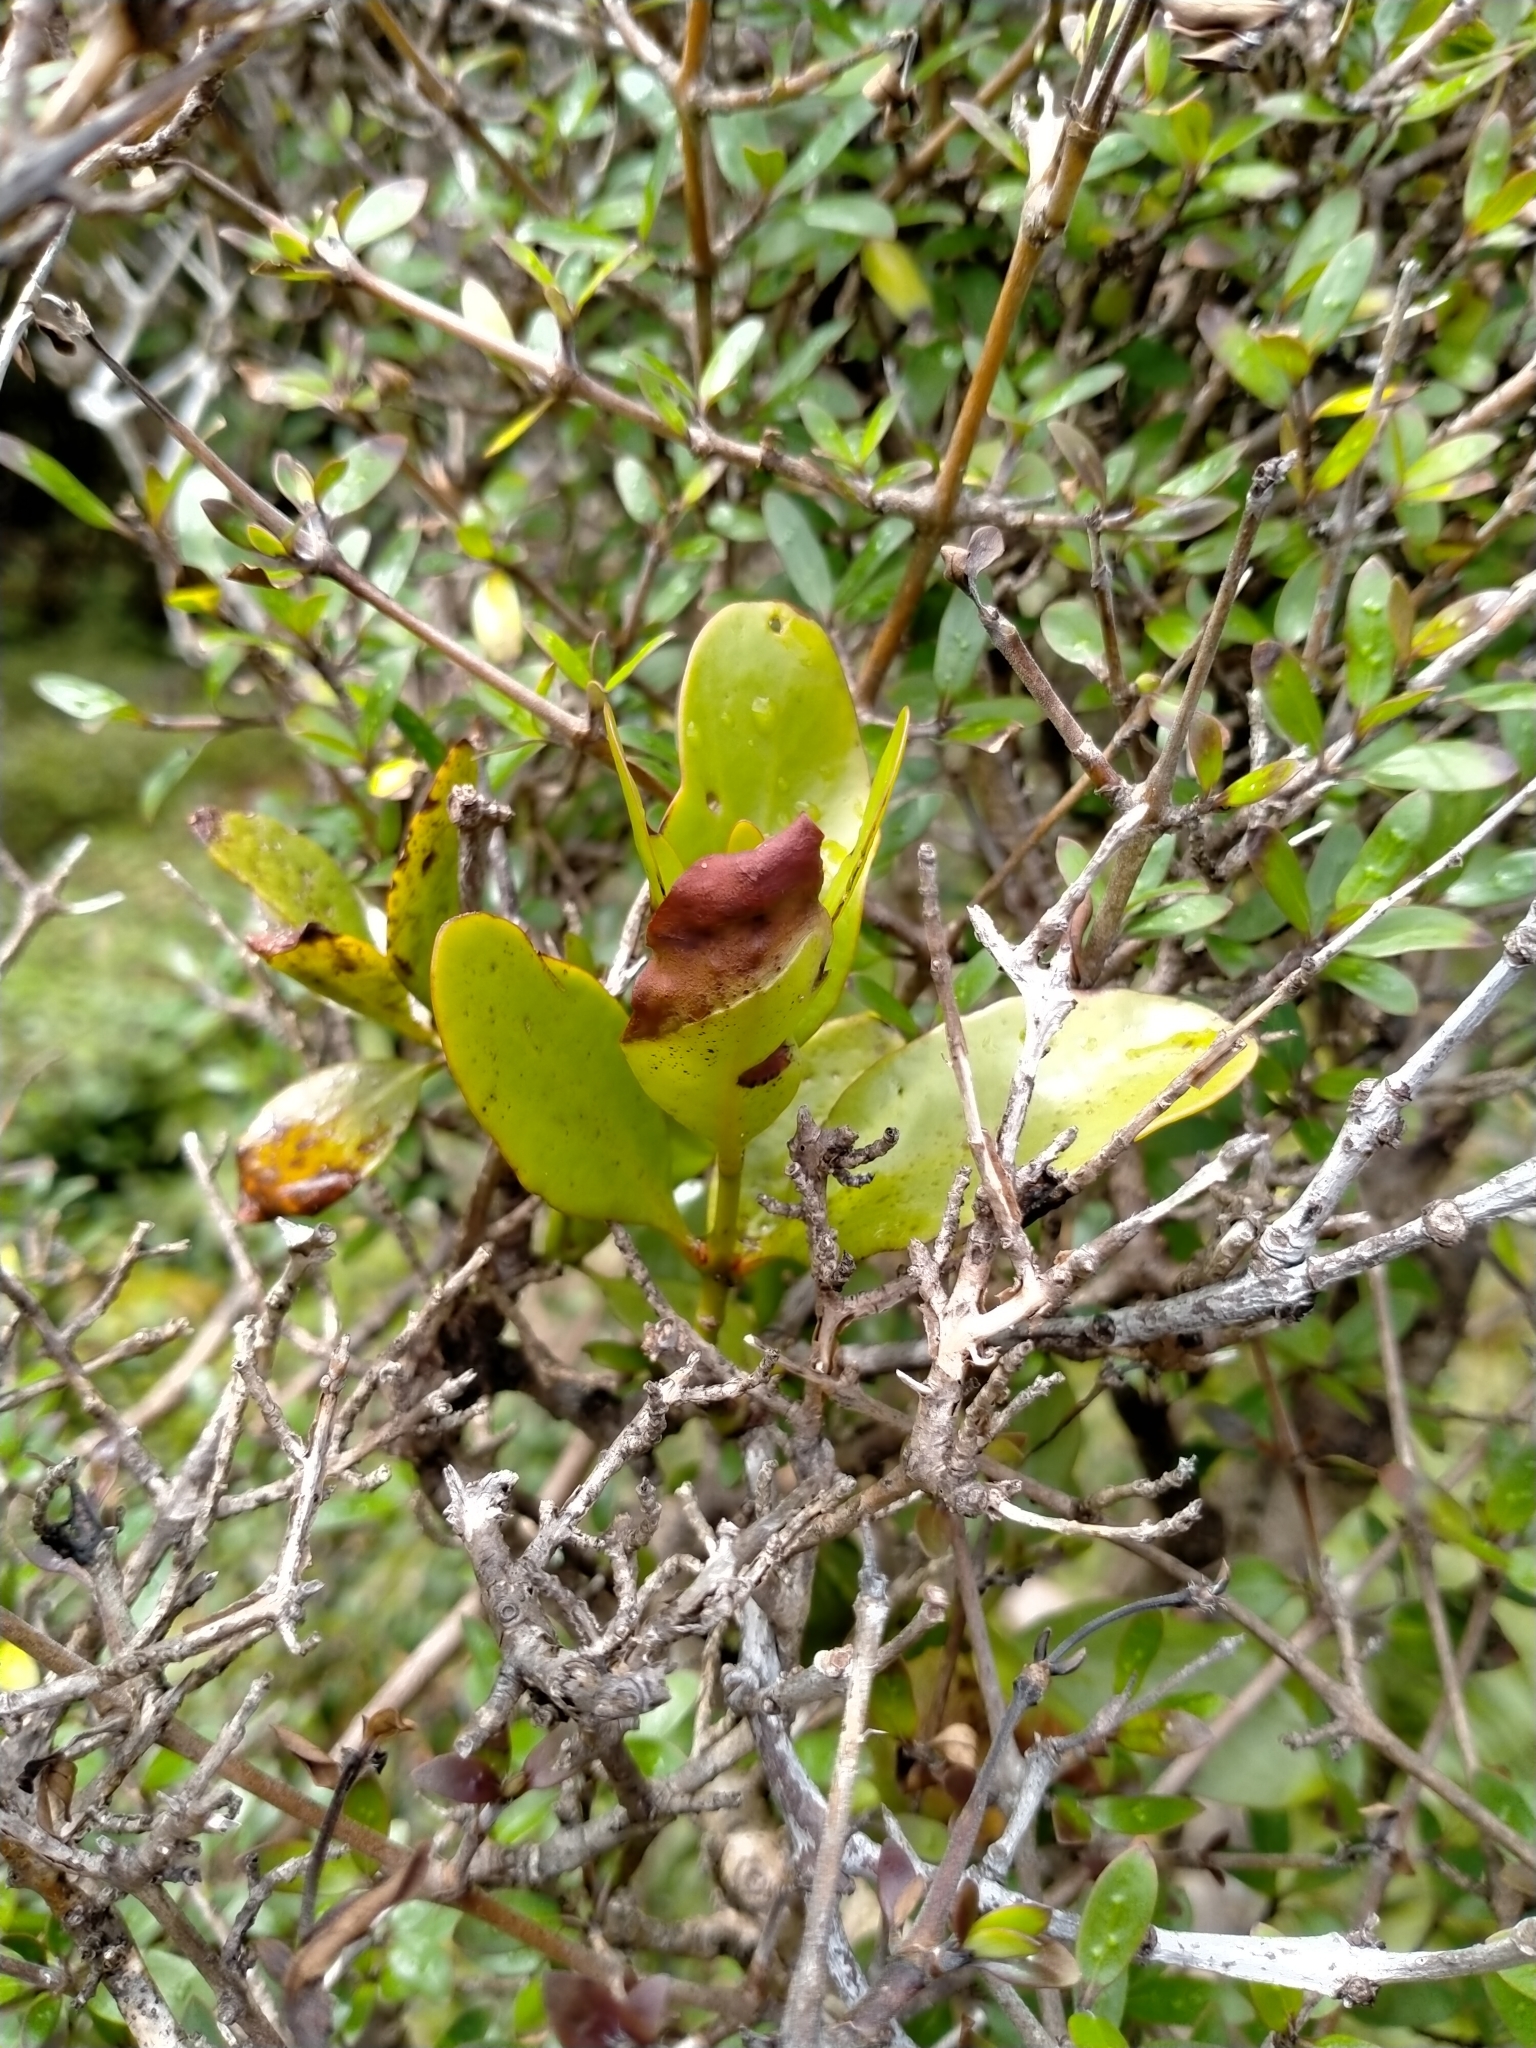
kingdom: Plantae
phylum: Tracheophyta
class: Magnoliopsida
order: Santalales
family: Loranthaceae
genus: Ileostylus
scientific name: Ileostylus micranthus
